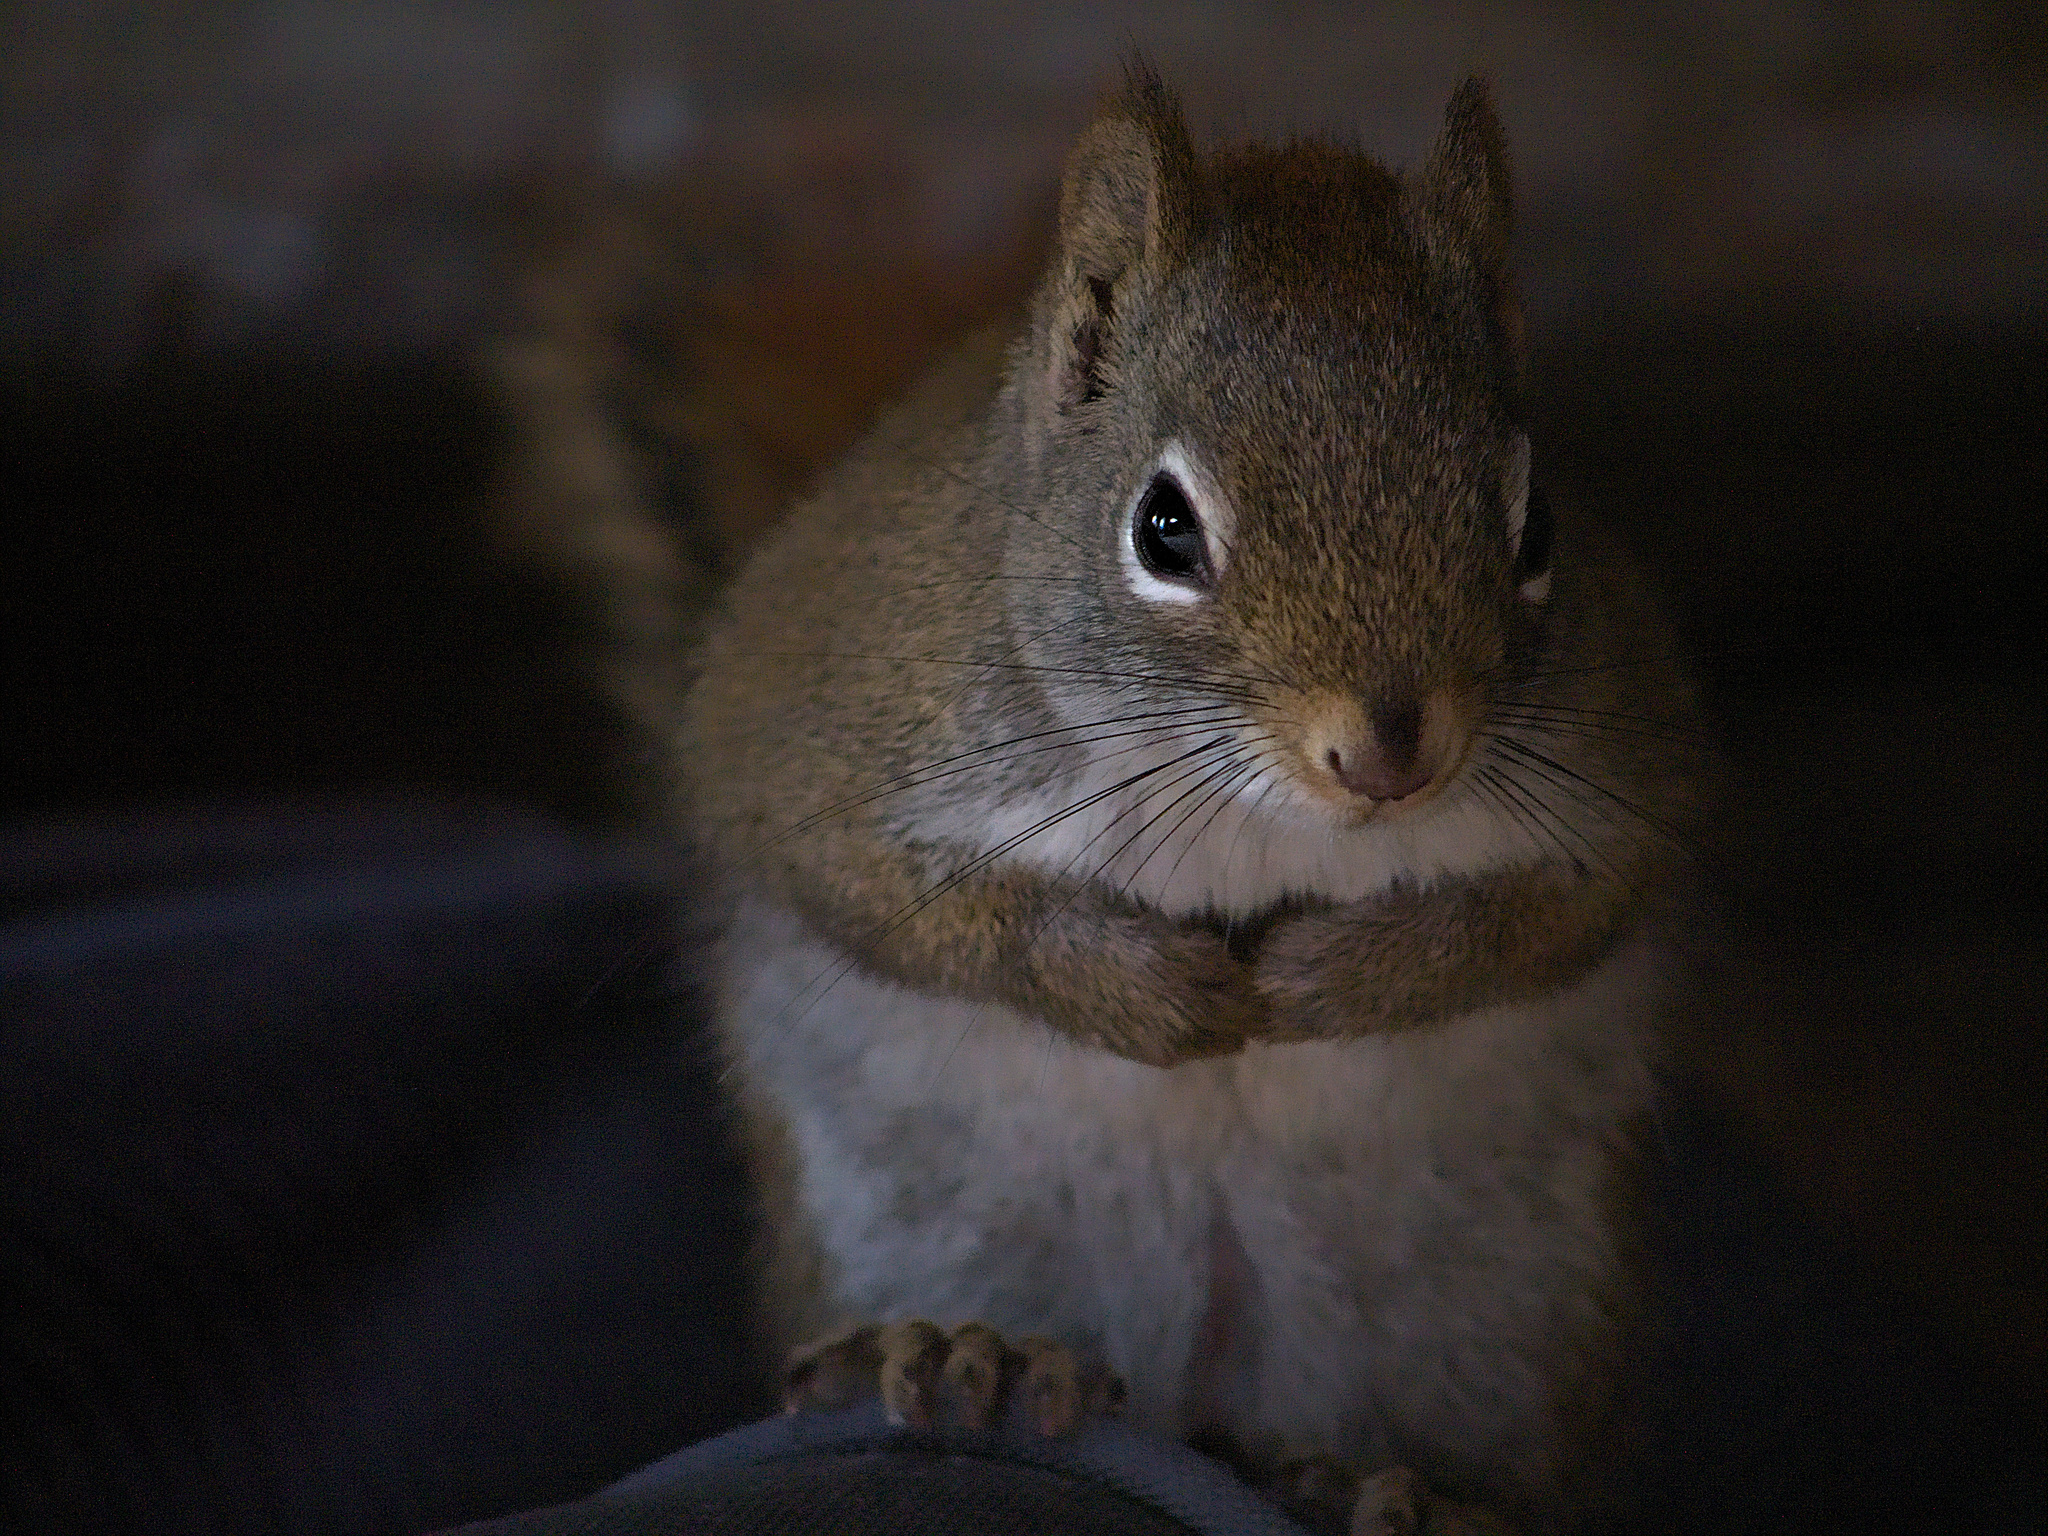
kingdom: Animalia
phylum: Chordata
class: Mammalia
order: Rodentia
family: Sciuridae
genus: Tamiasciurus
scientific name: Tamiasciurus hudsonicus
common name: Red squirrel
